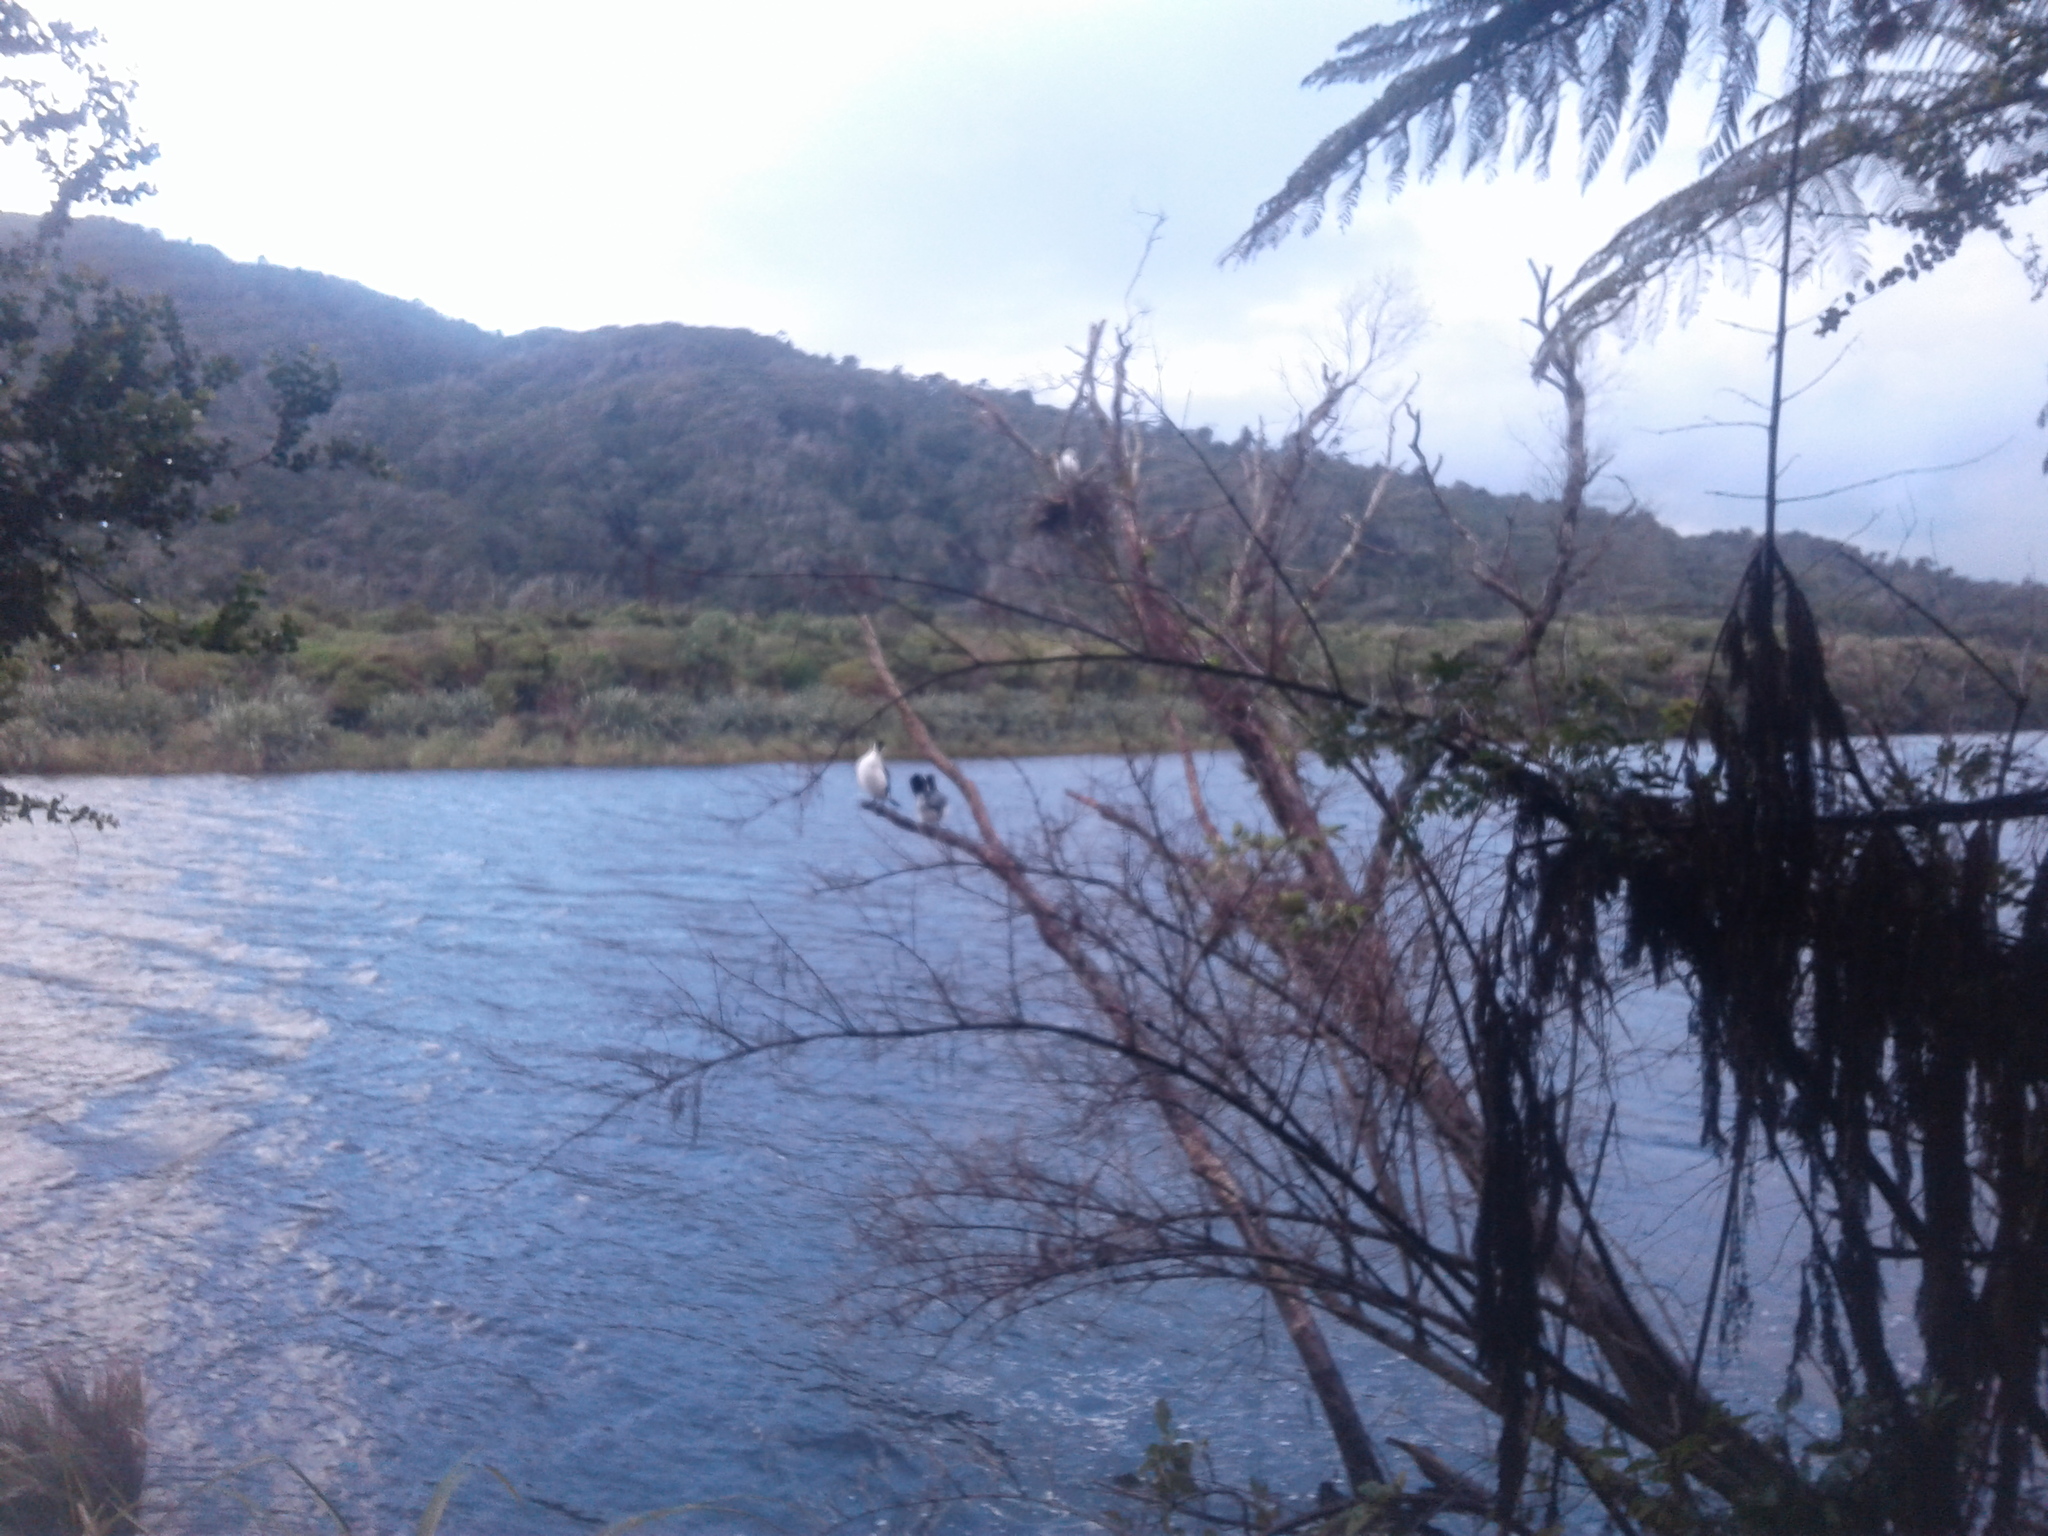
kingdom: Animalia
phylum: Chordata
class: Aves
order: Suliformes
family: Phalacrocoracidae
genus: Phalacrocorax
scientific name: Phalacrocorax varius
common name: Pied cormorant
